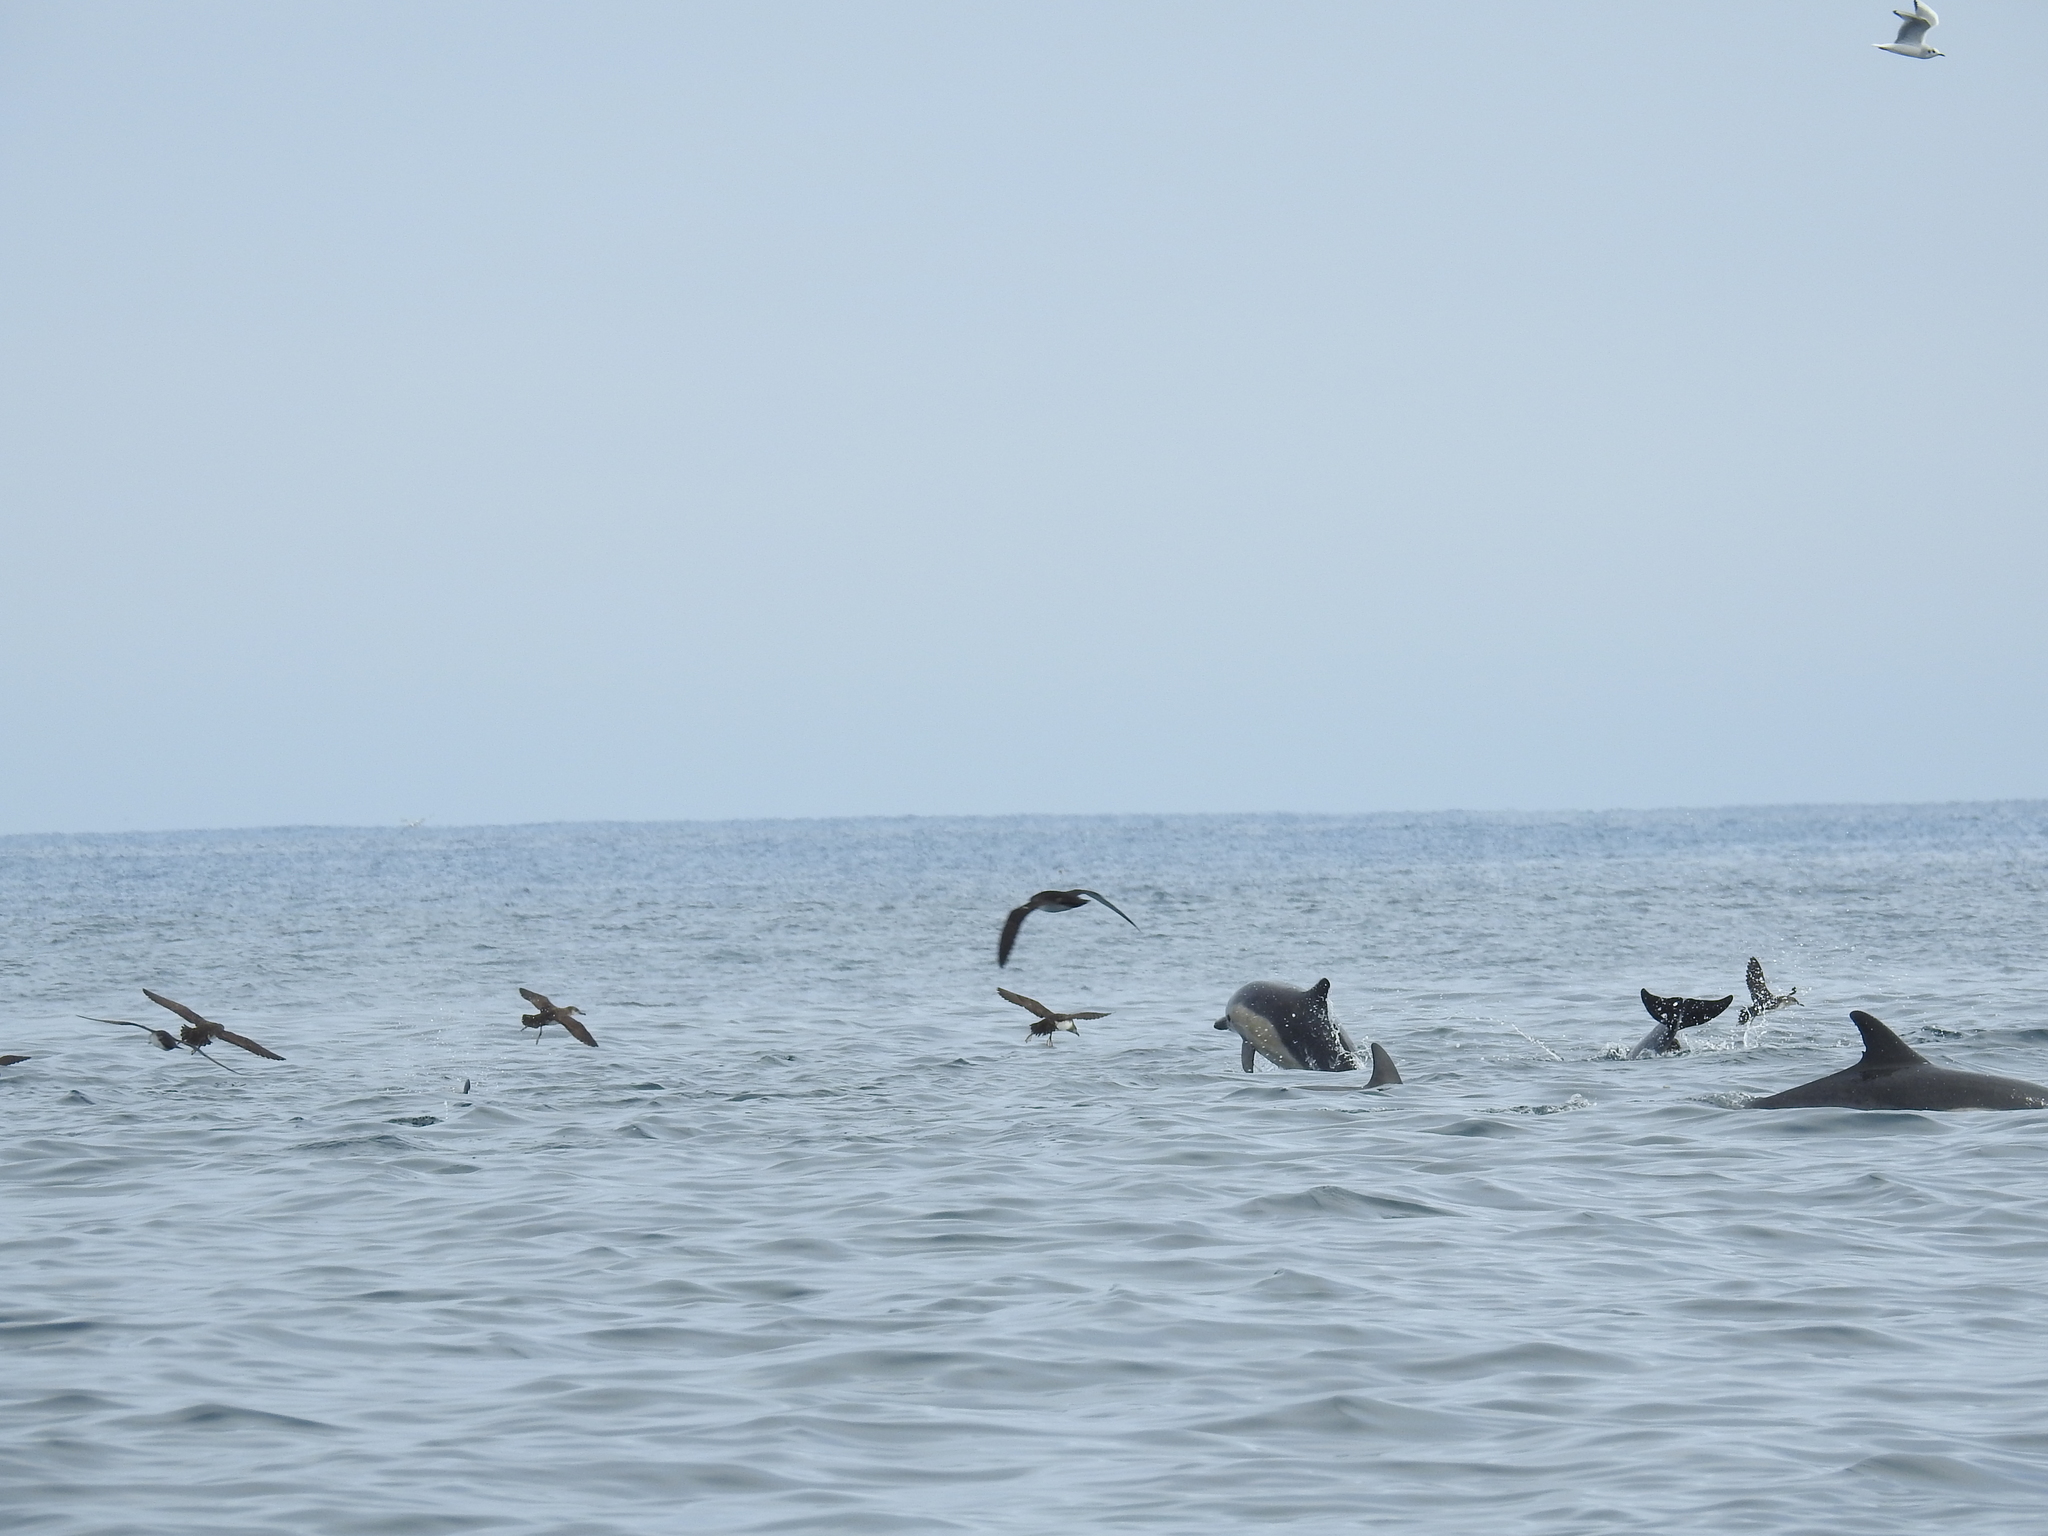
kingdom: Animalia
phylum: Chordata
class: Aves
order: Charadriiformes
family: Laridae
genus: Chroicocephalus
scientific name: Chroicocephalus philadelphia
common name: Bonaparte's gull
